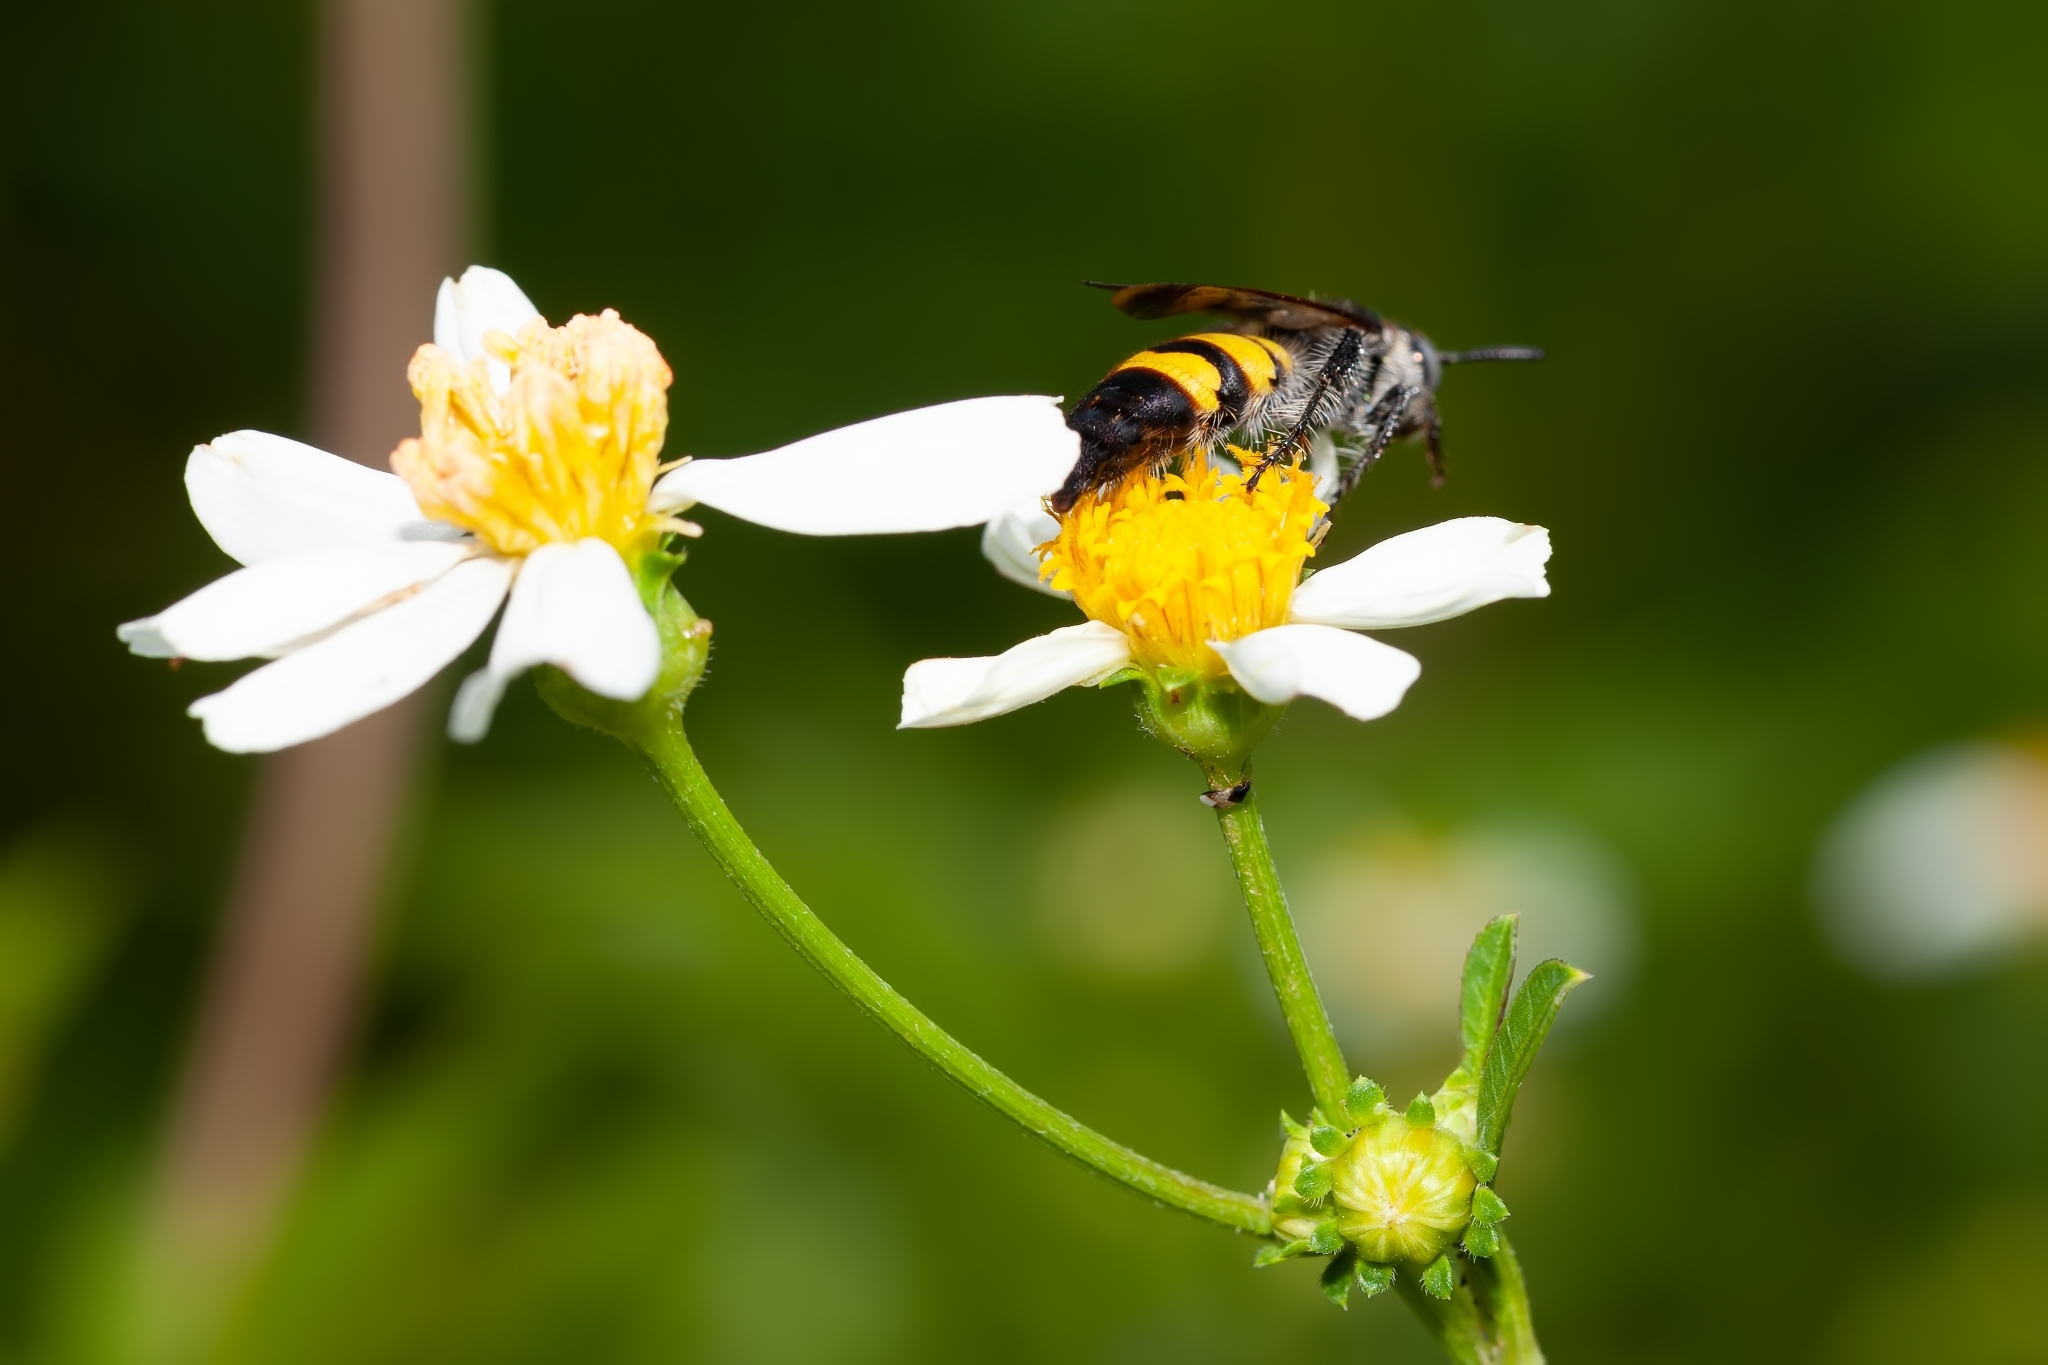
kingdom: Animalia
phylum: Arthropoda
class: Insecta
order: Hymenoptera
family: Scoliidae
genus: Dielis
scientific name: Dielis
